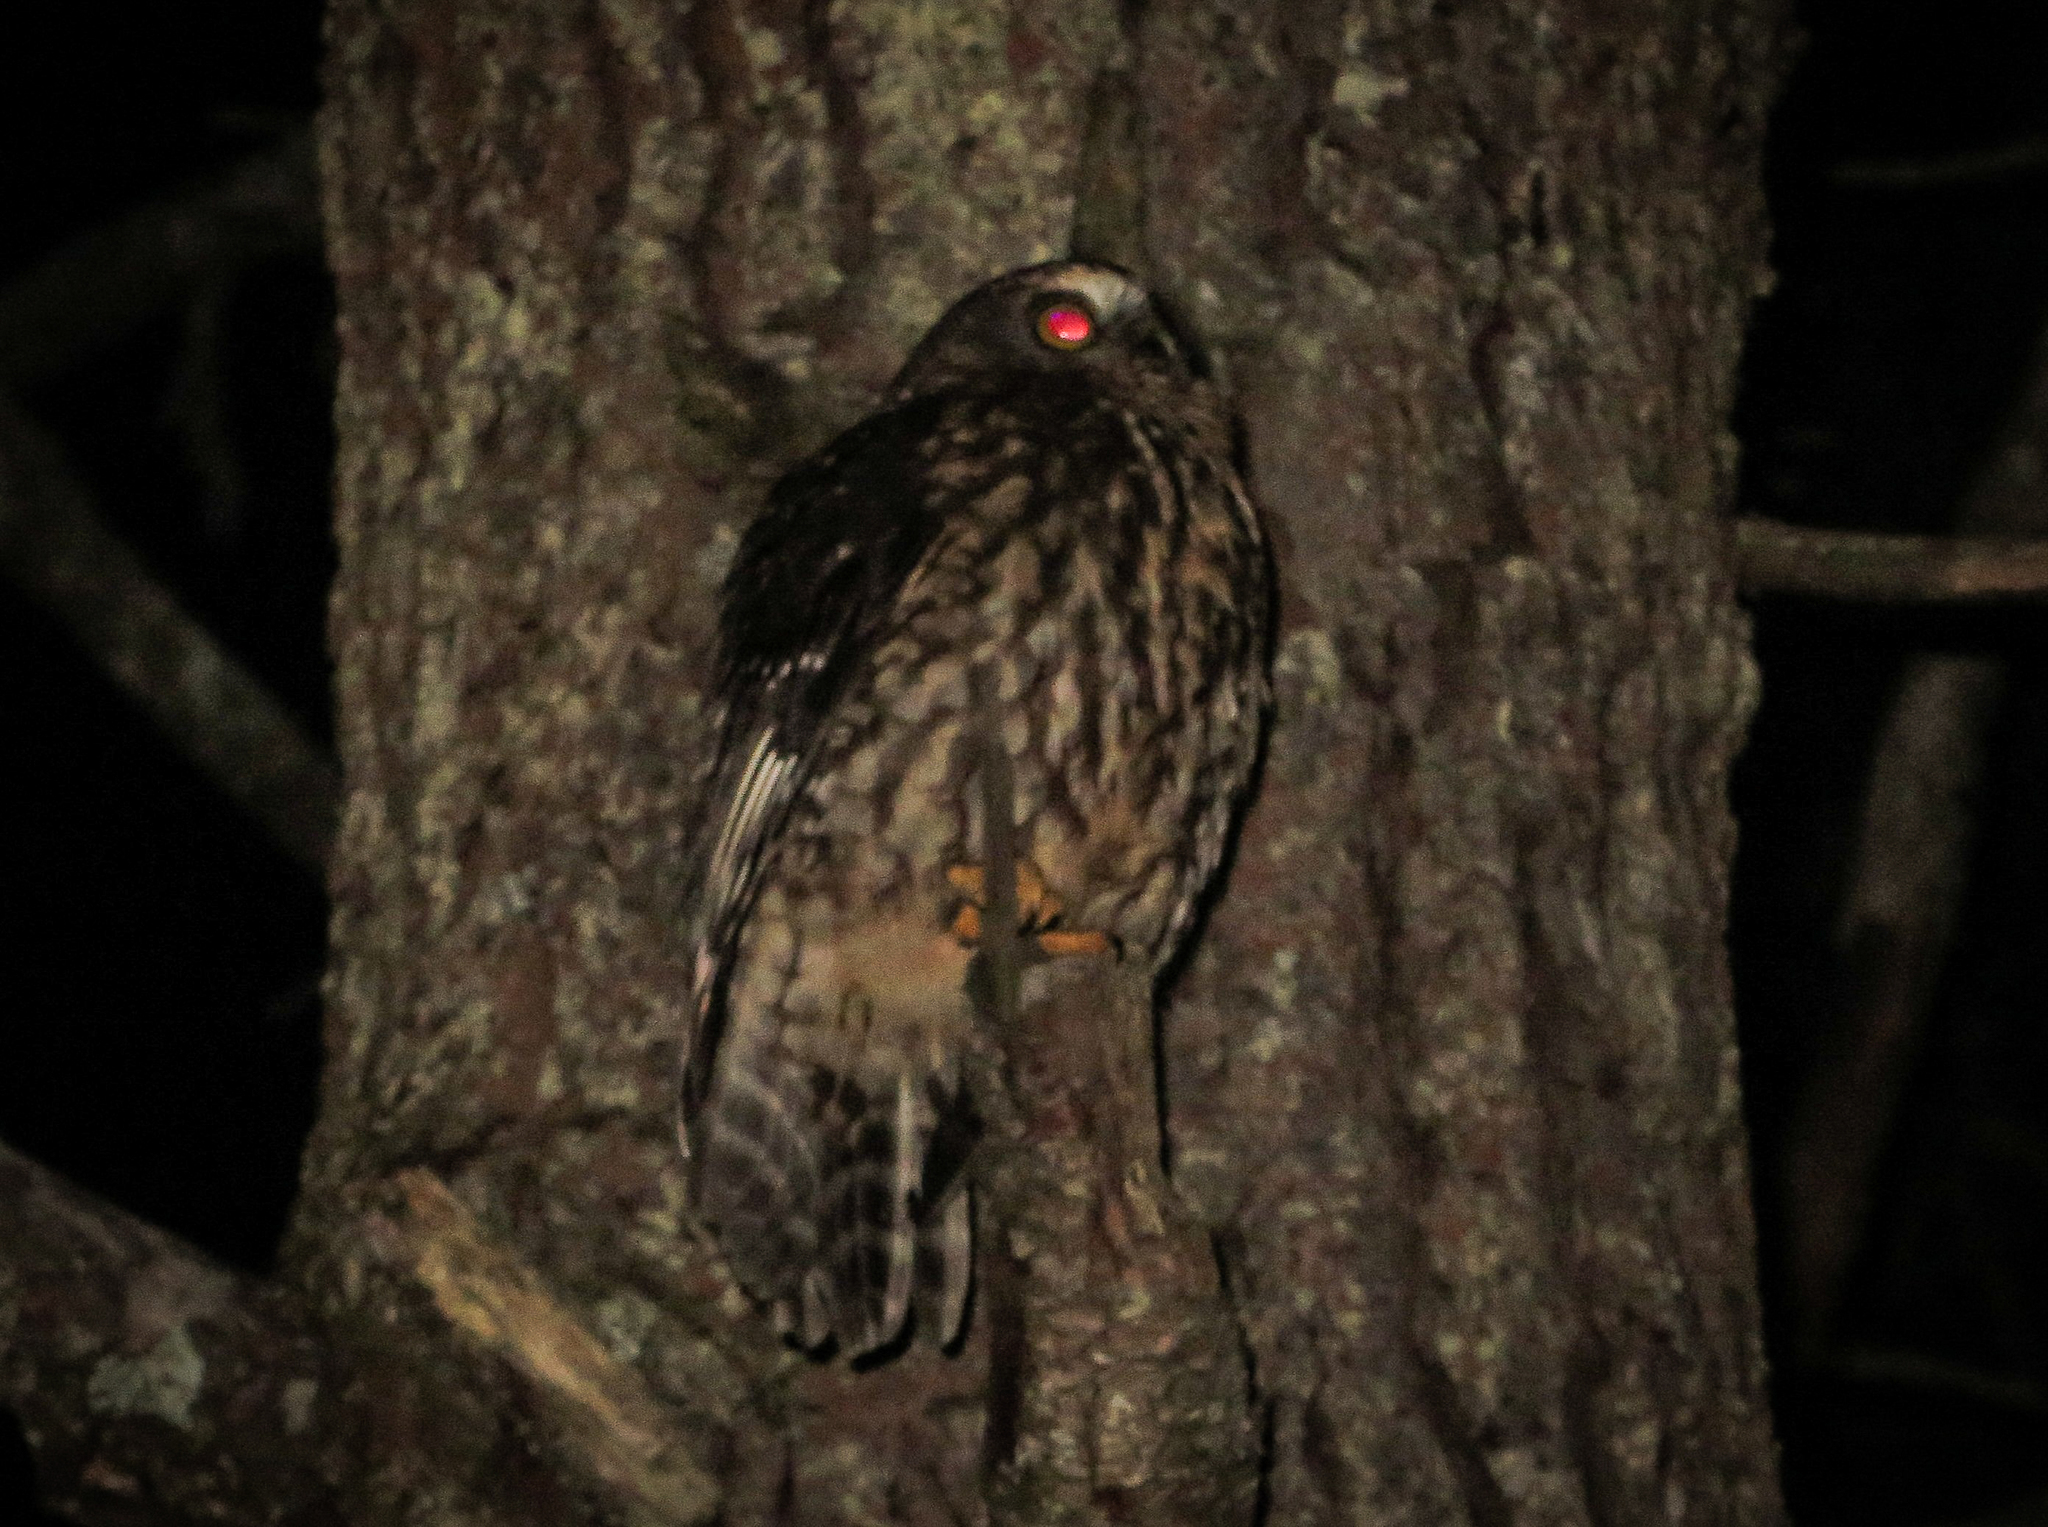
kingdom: Animalia
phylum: Chordata
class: Aves
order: Strigiformes
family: Strigidae
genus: Ninox
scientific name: Ninox novaeseelandiae
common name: Morepork
